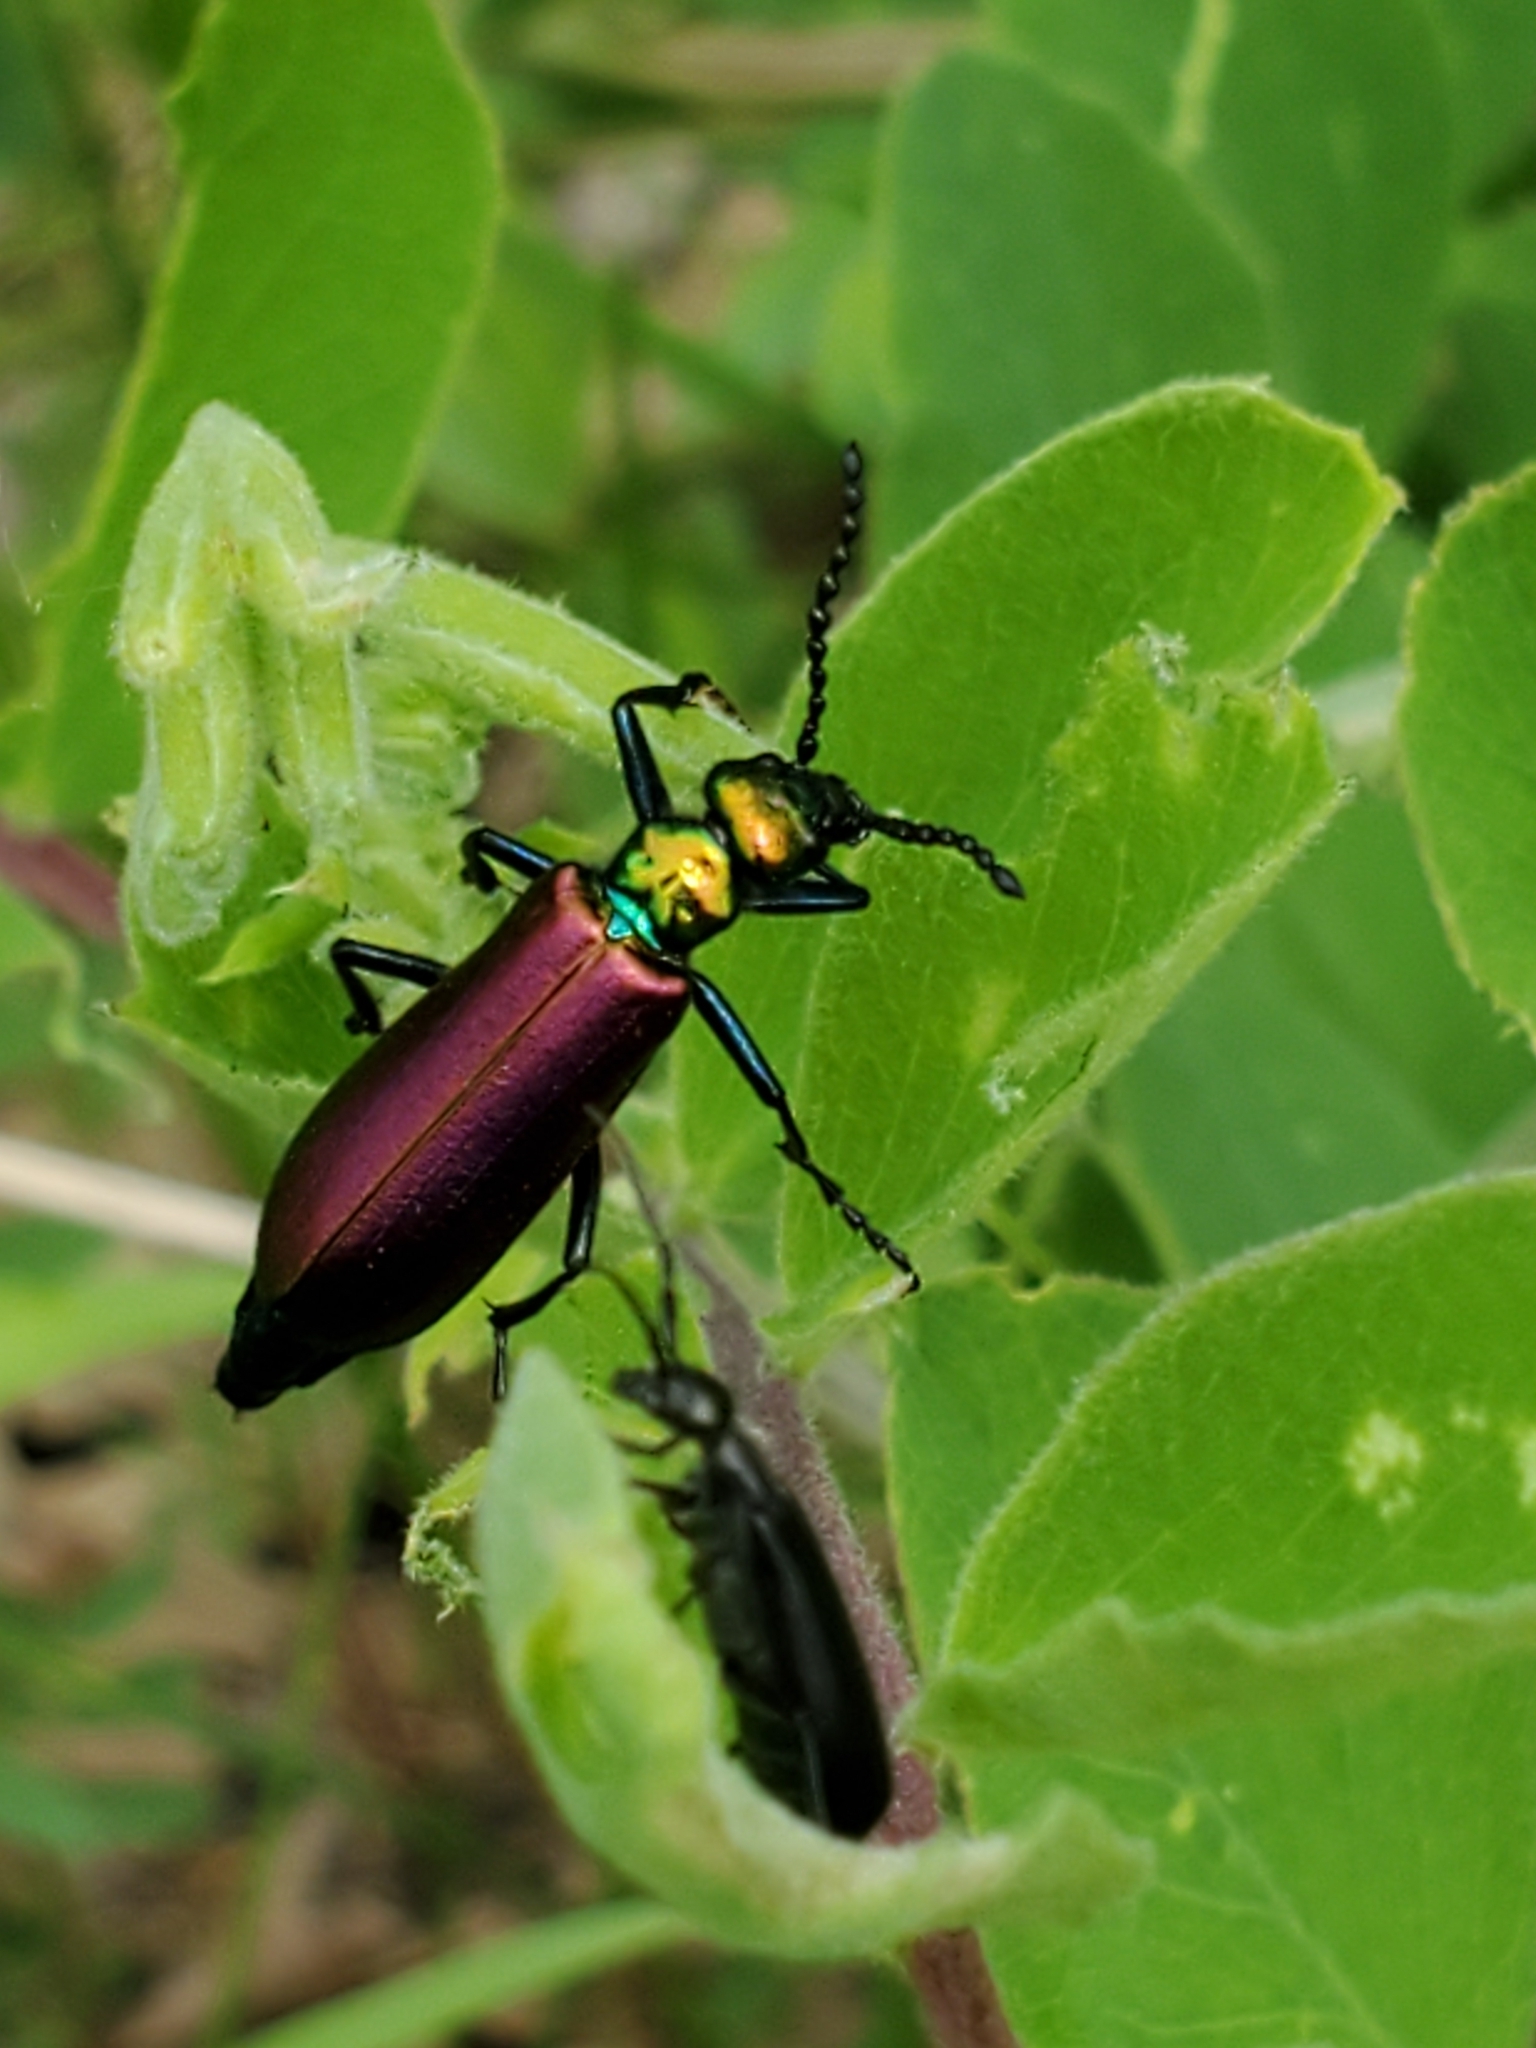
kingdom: Animalia
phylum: Arthropoda
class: Insecta
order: Coleoptera
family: Meloidae
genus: Lytta
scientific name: Lytta nuttallii
